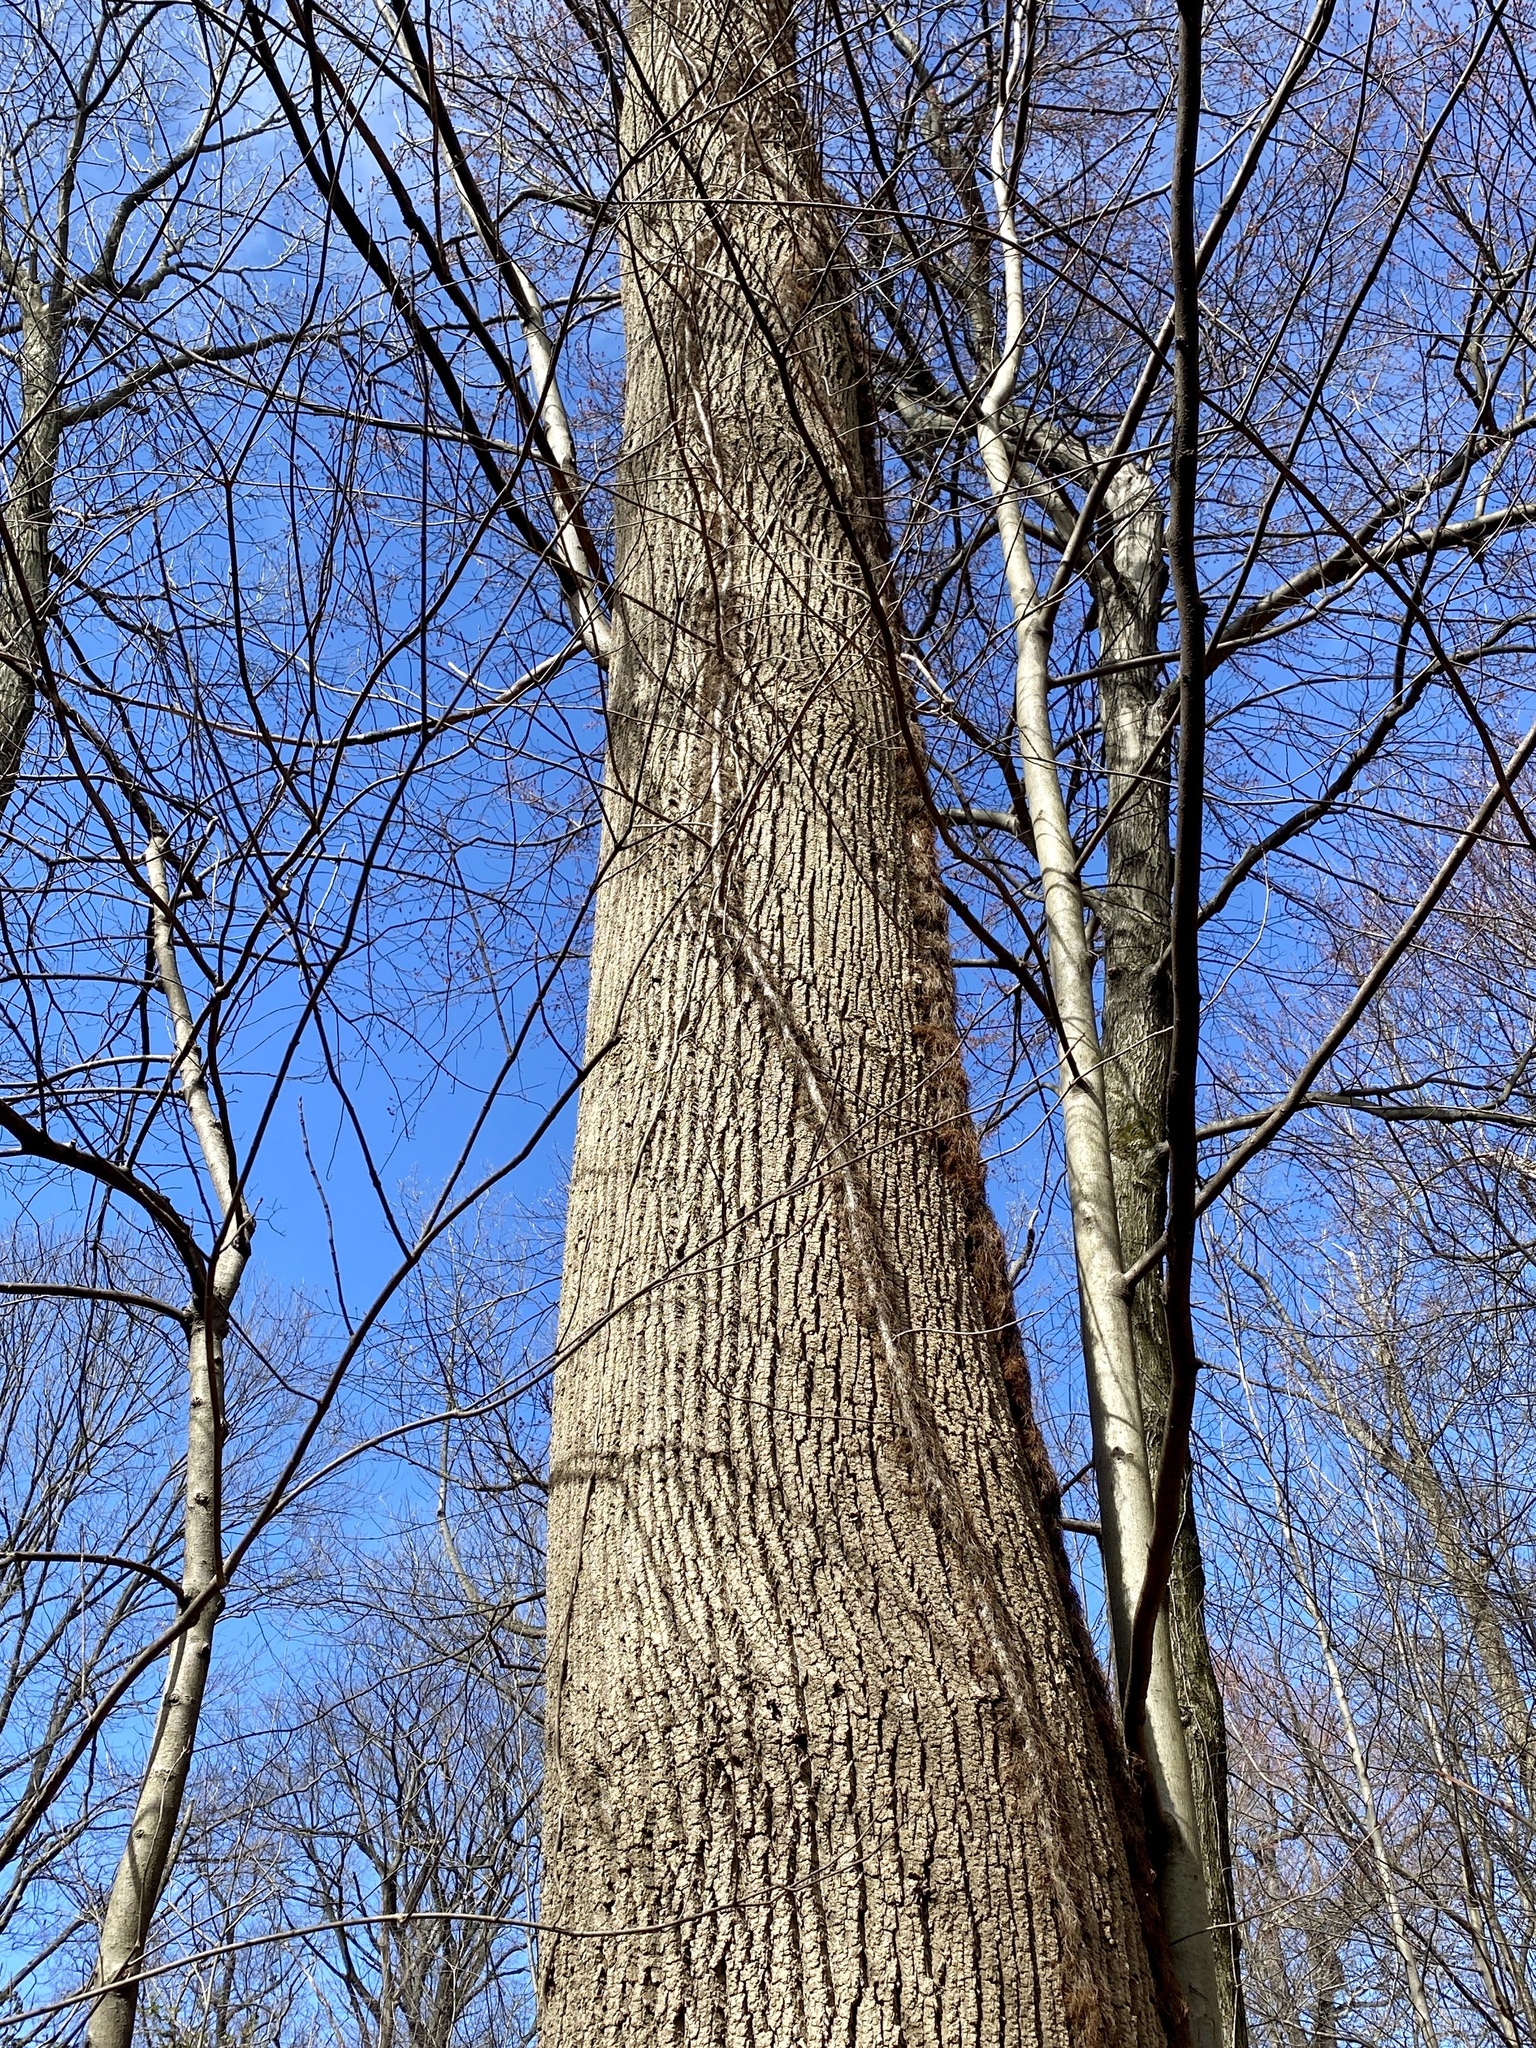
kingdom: Plantae
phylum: Tracheophyta
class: Magnoliopsida
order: Magnoliales
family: Magnoliaceae
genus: Liriodendron
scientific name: Liriodendron tulipifera
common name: Tulip tree
